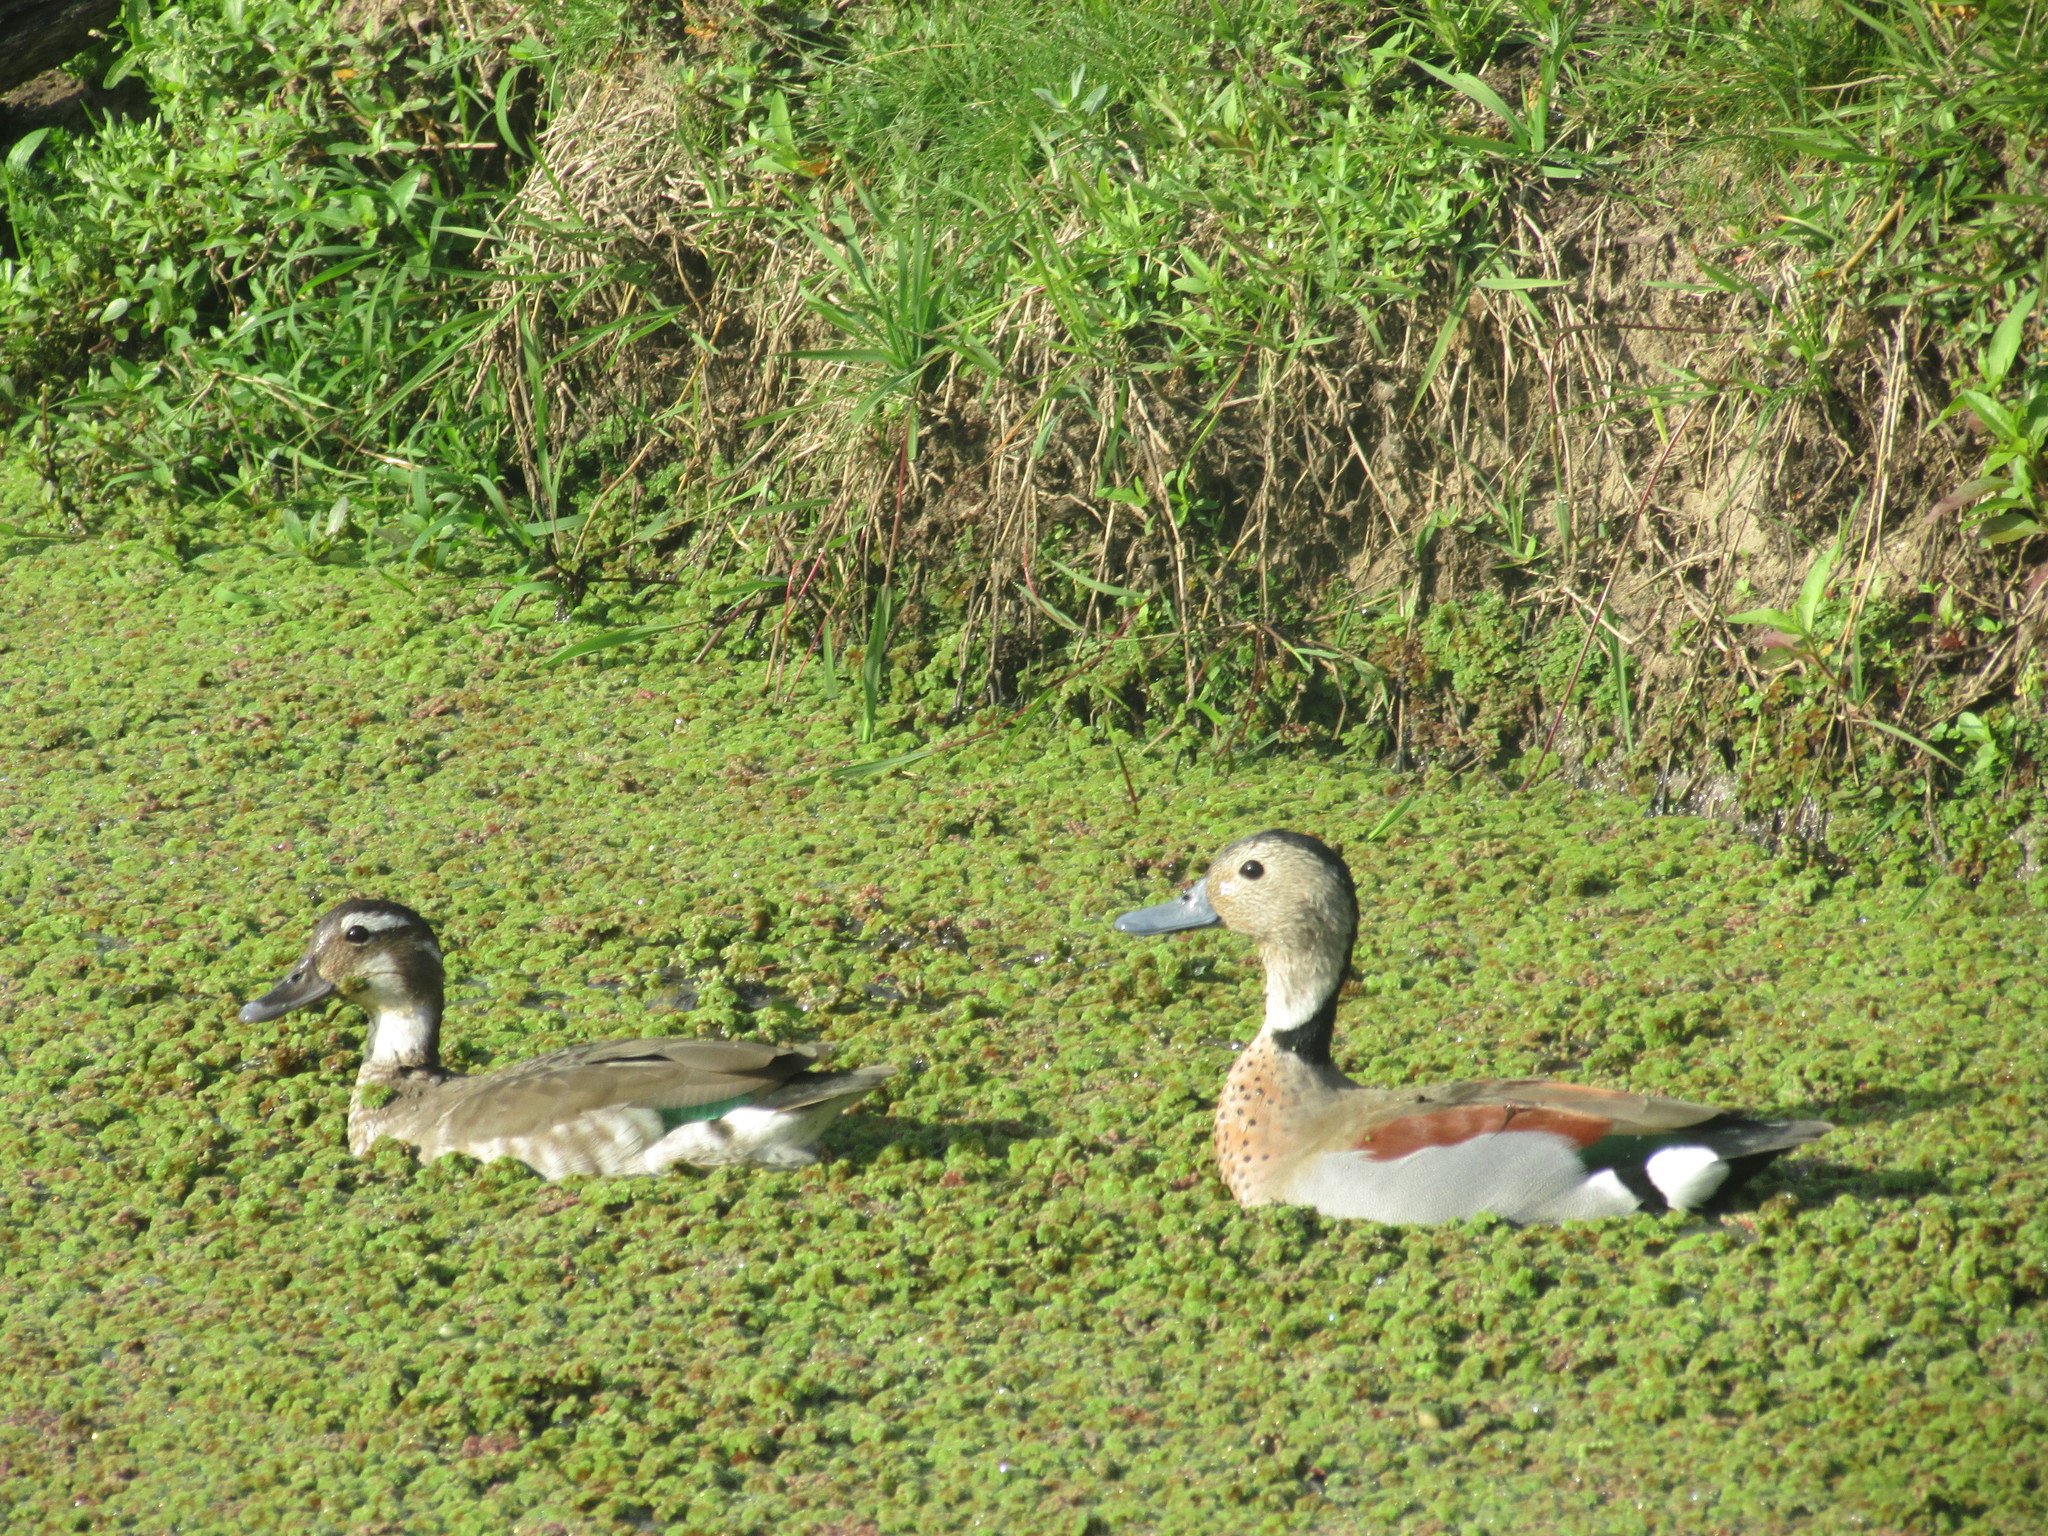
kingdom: Animalia
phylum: Chordata
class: Aves
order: Anseriformes
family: Anatidae
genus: Callonetta
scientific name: Callonetta leucophrys
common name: Ringed teal
